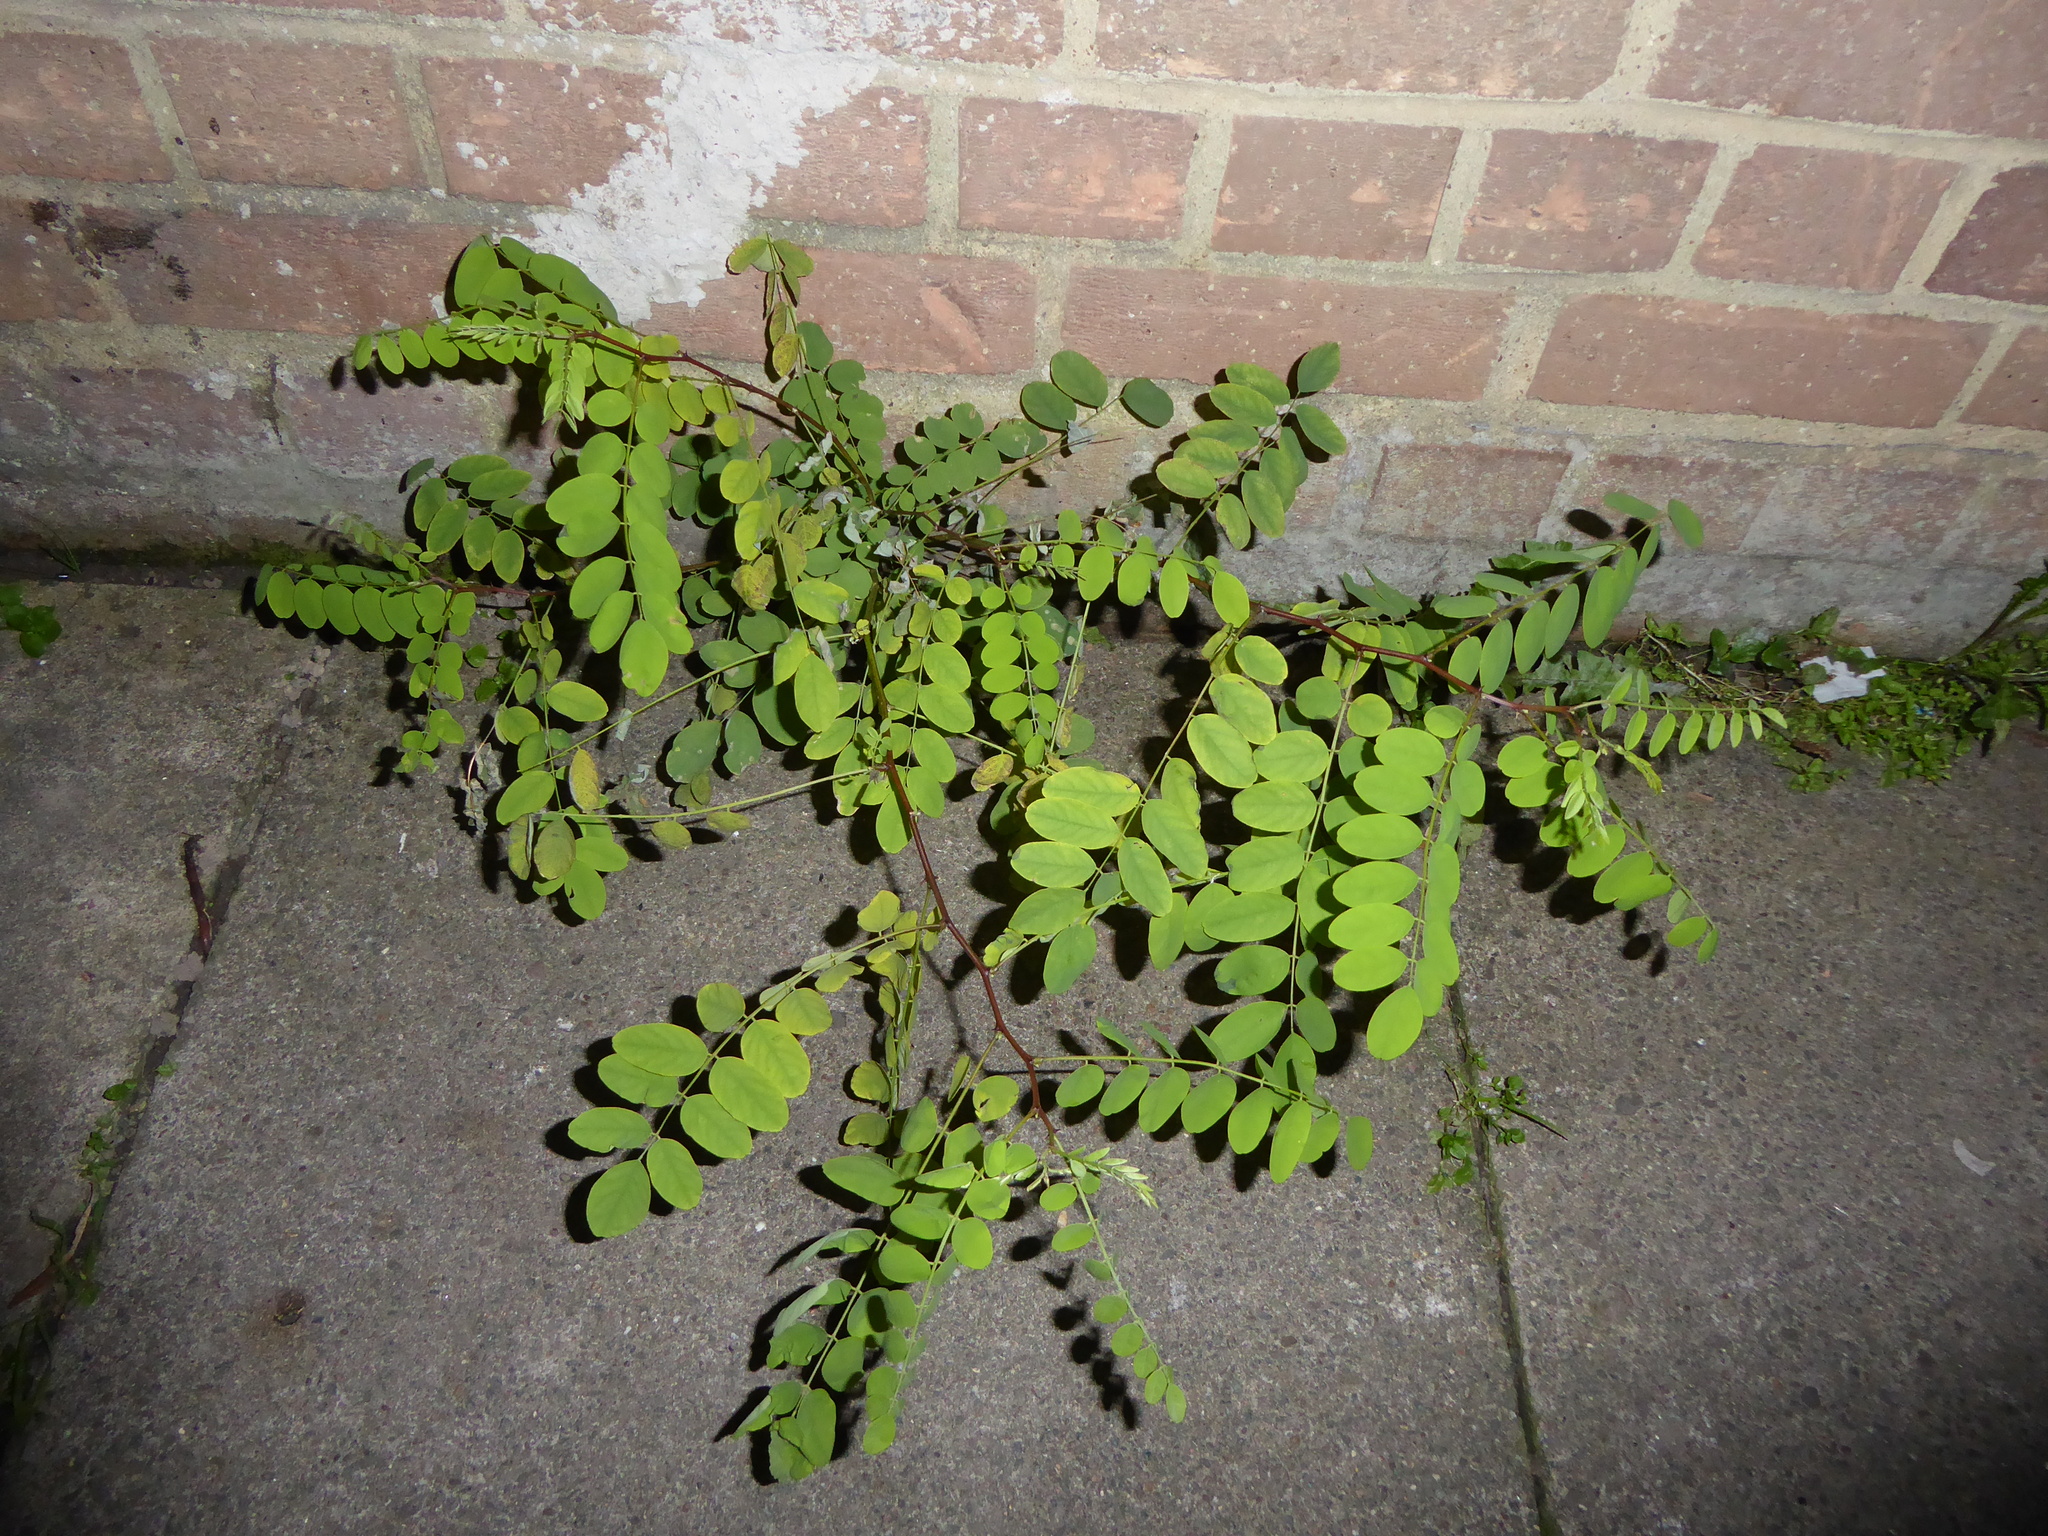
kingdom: Plantae
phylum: Tracheophyta
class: Magnoliopsida
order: Fabales
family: Fabaceae
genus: Robinia
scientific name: Robinia pseudoacacia
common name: Black locust
